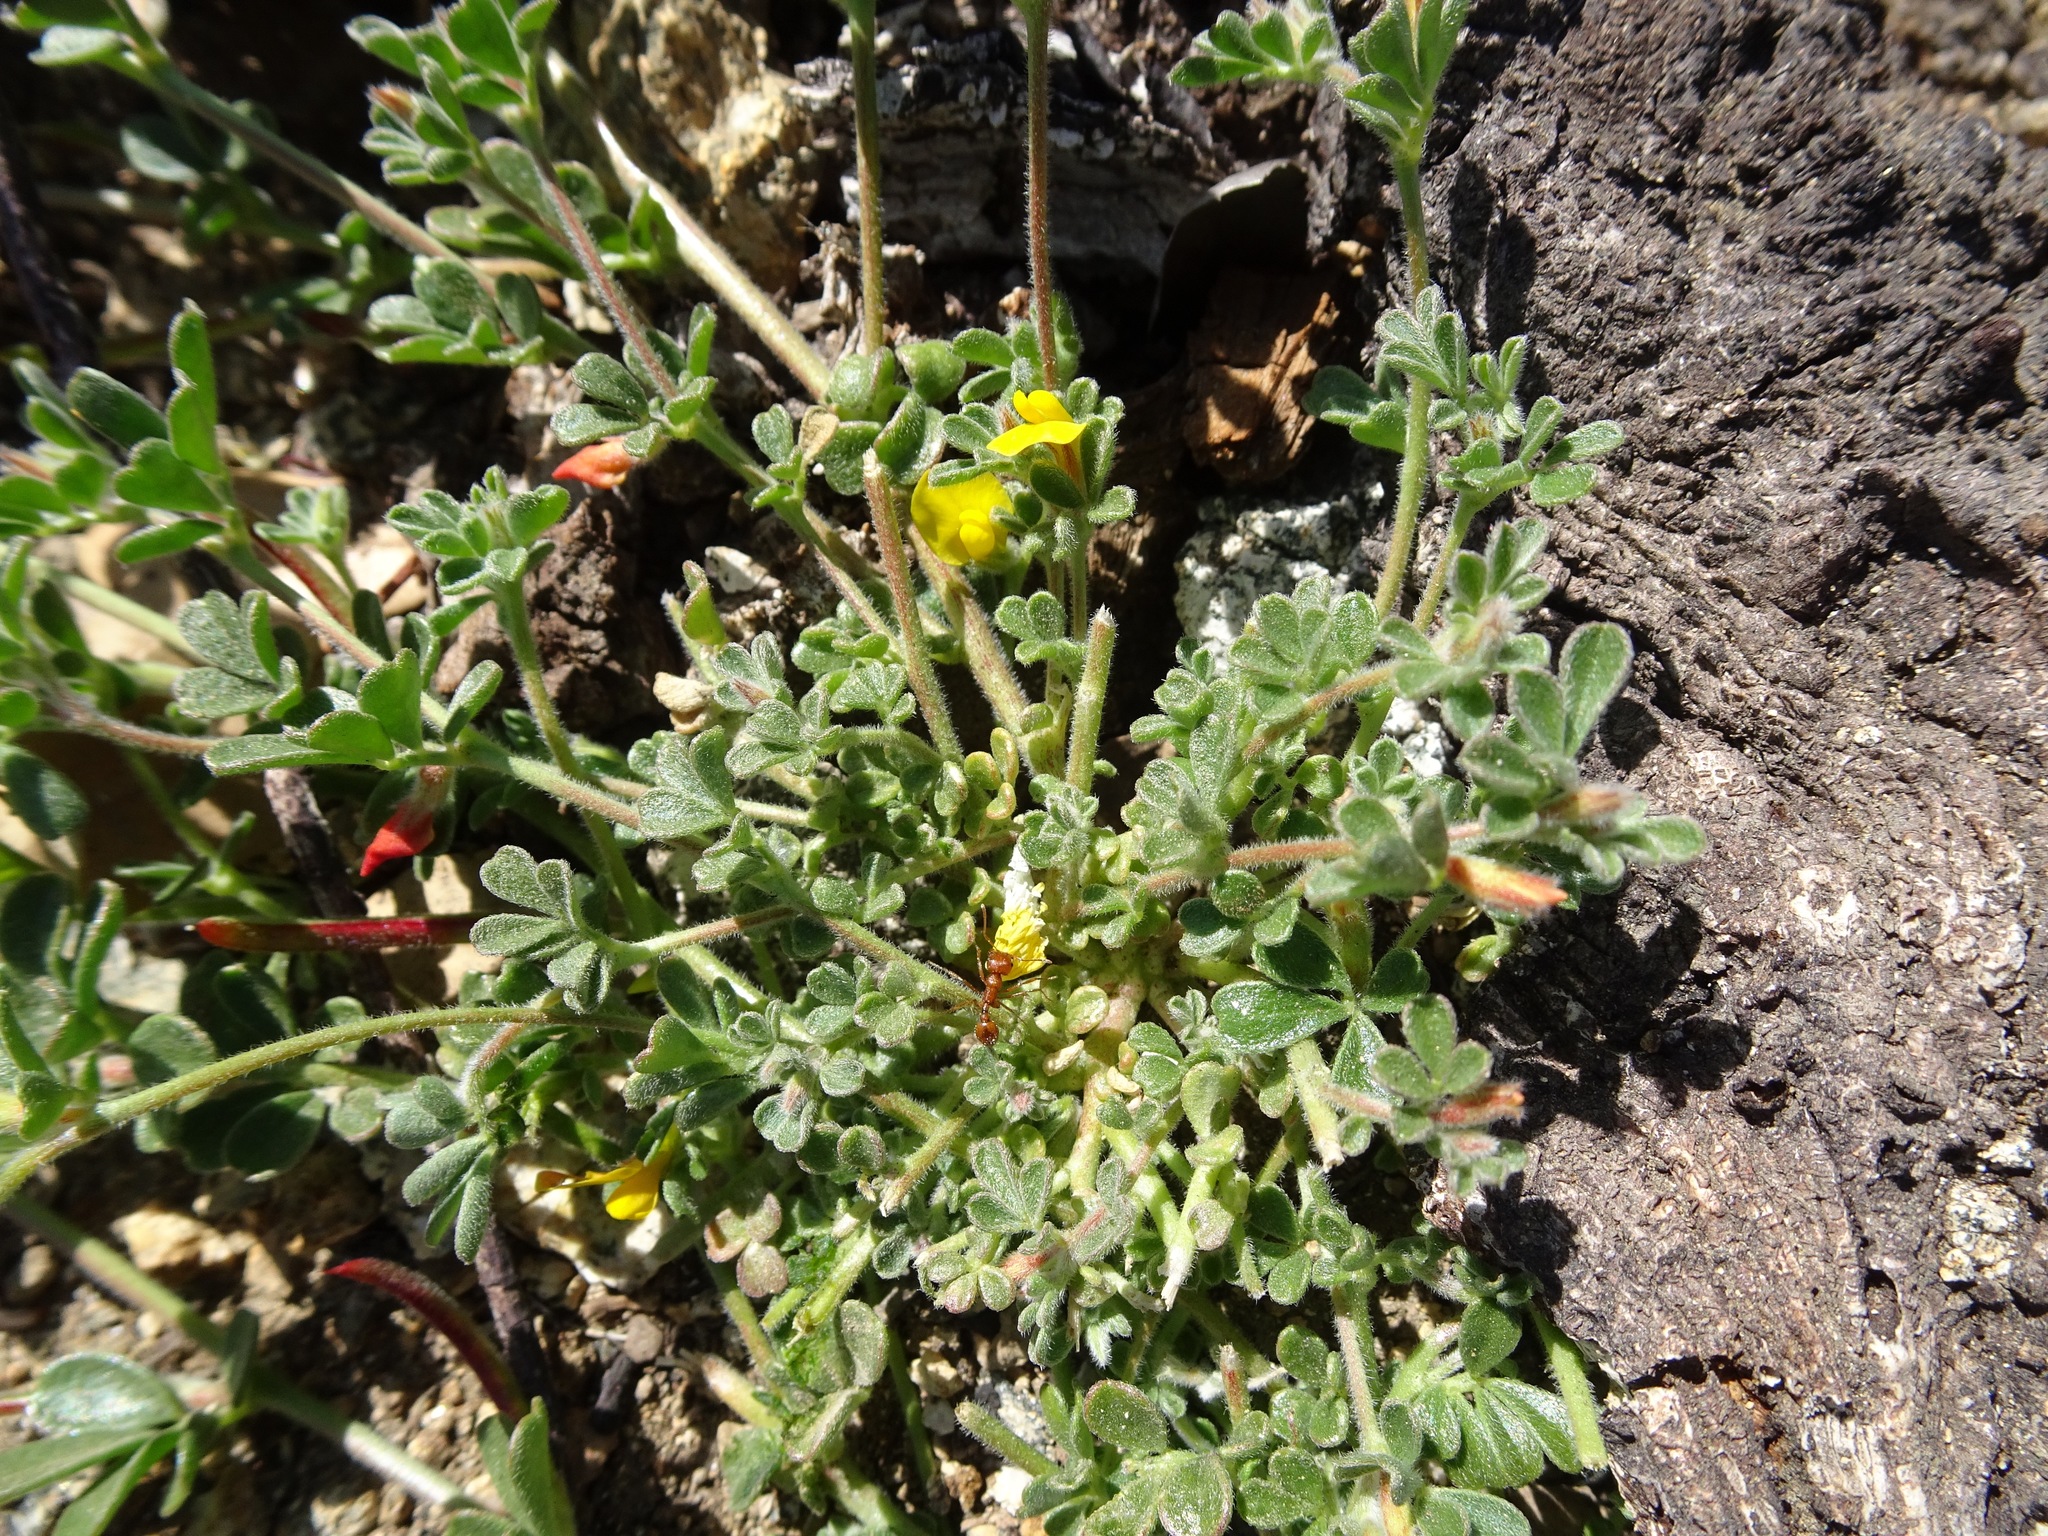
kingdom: Plantae
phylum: Tracheophyta
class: Magnoliopsida
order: Fabales
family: Fabaceae
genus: Acmispon
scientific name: Acmispon strigosus
